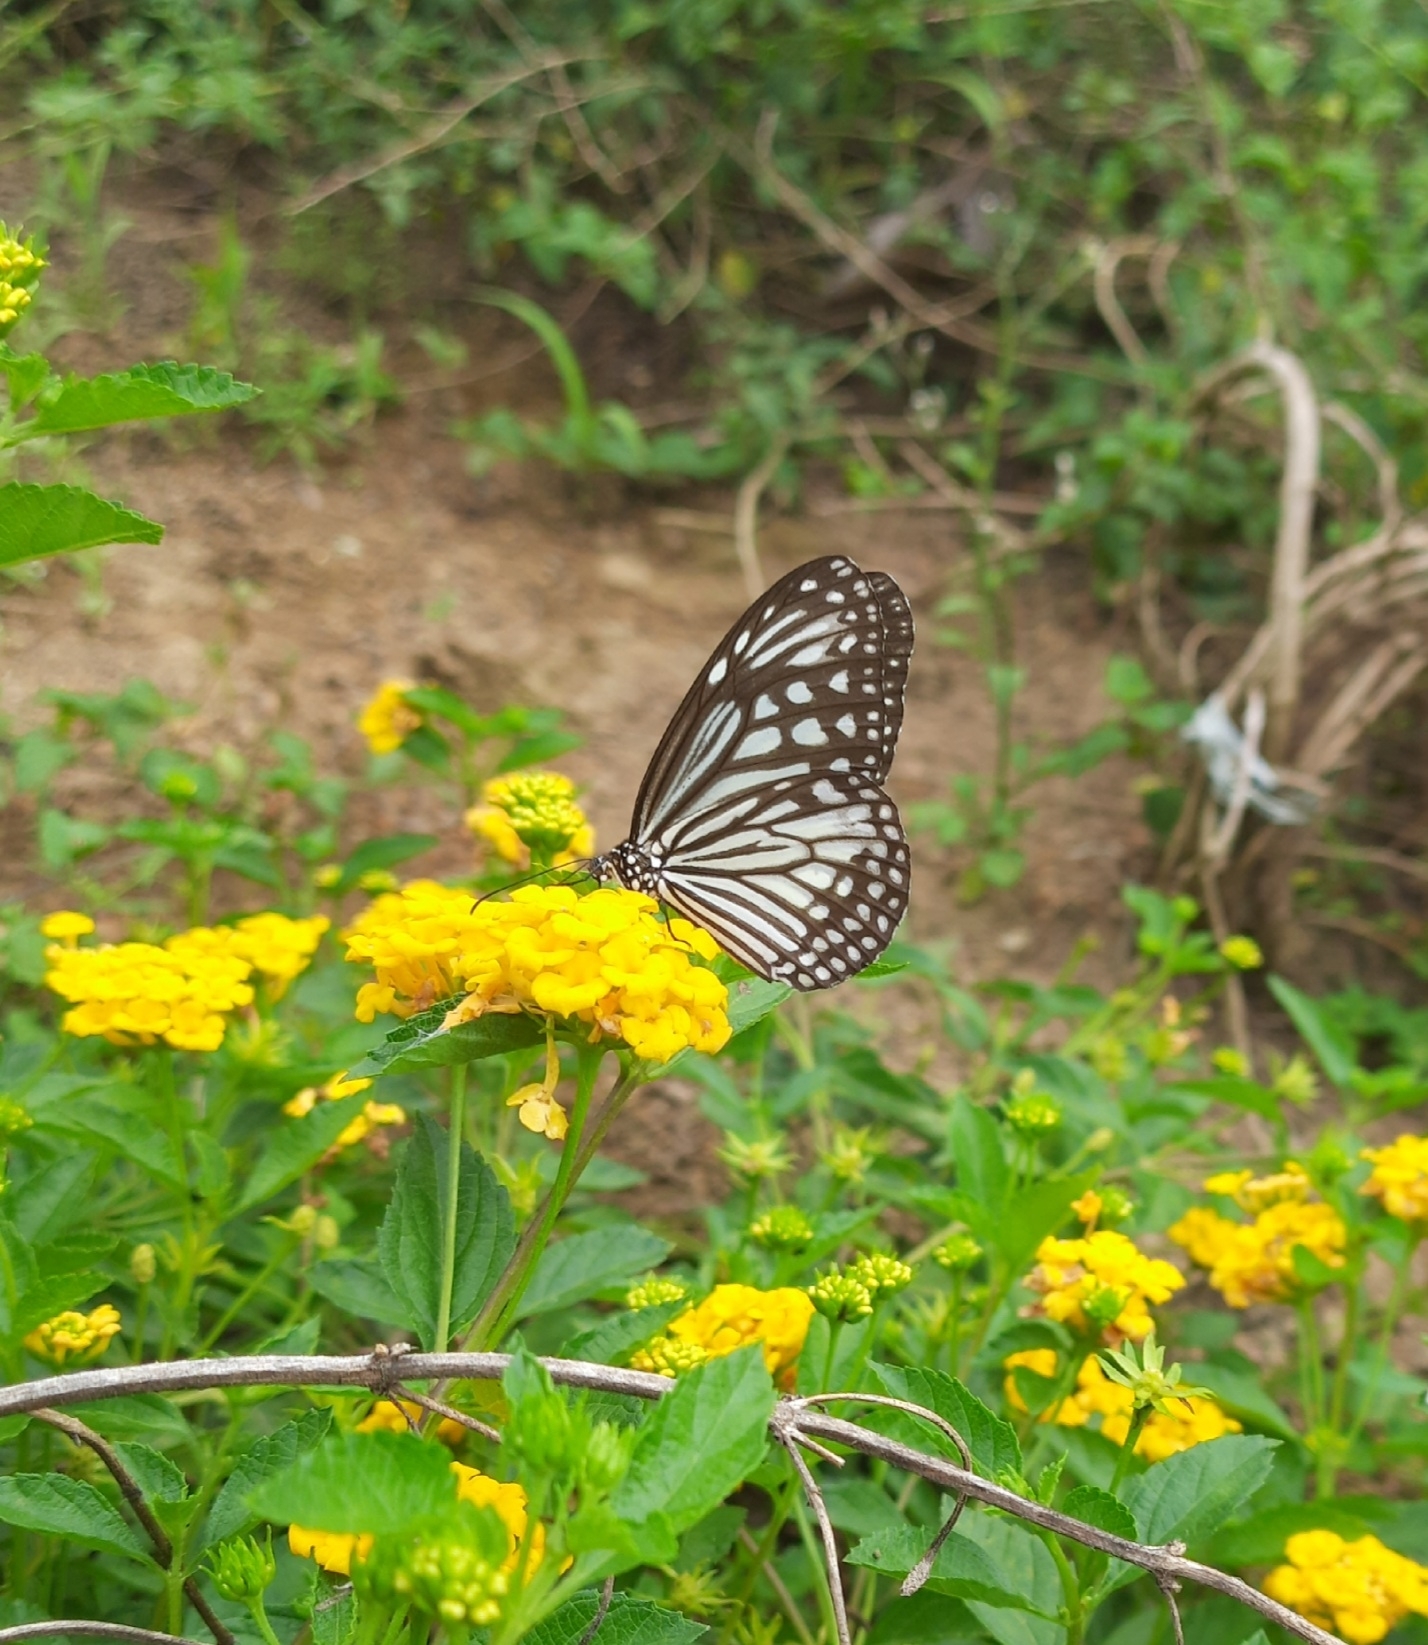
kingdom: Animalia
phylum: Arthropoda
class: Insecta
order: Lepidoptera
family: Nymphalidae
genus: Parantica
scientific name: Parantica aglea
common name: Glassy tiger
